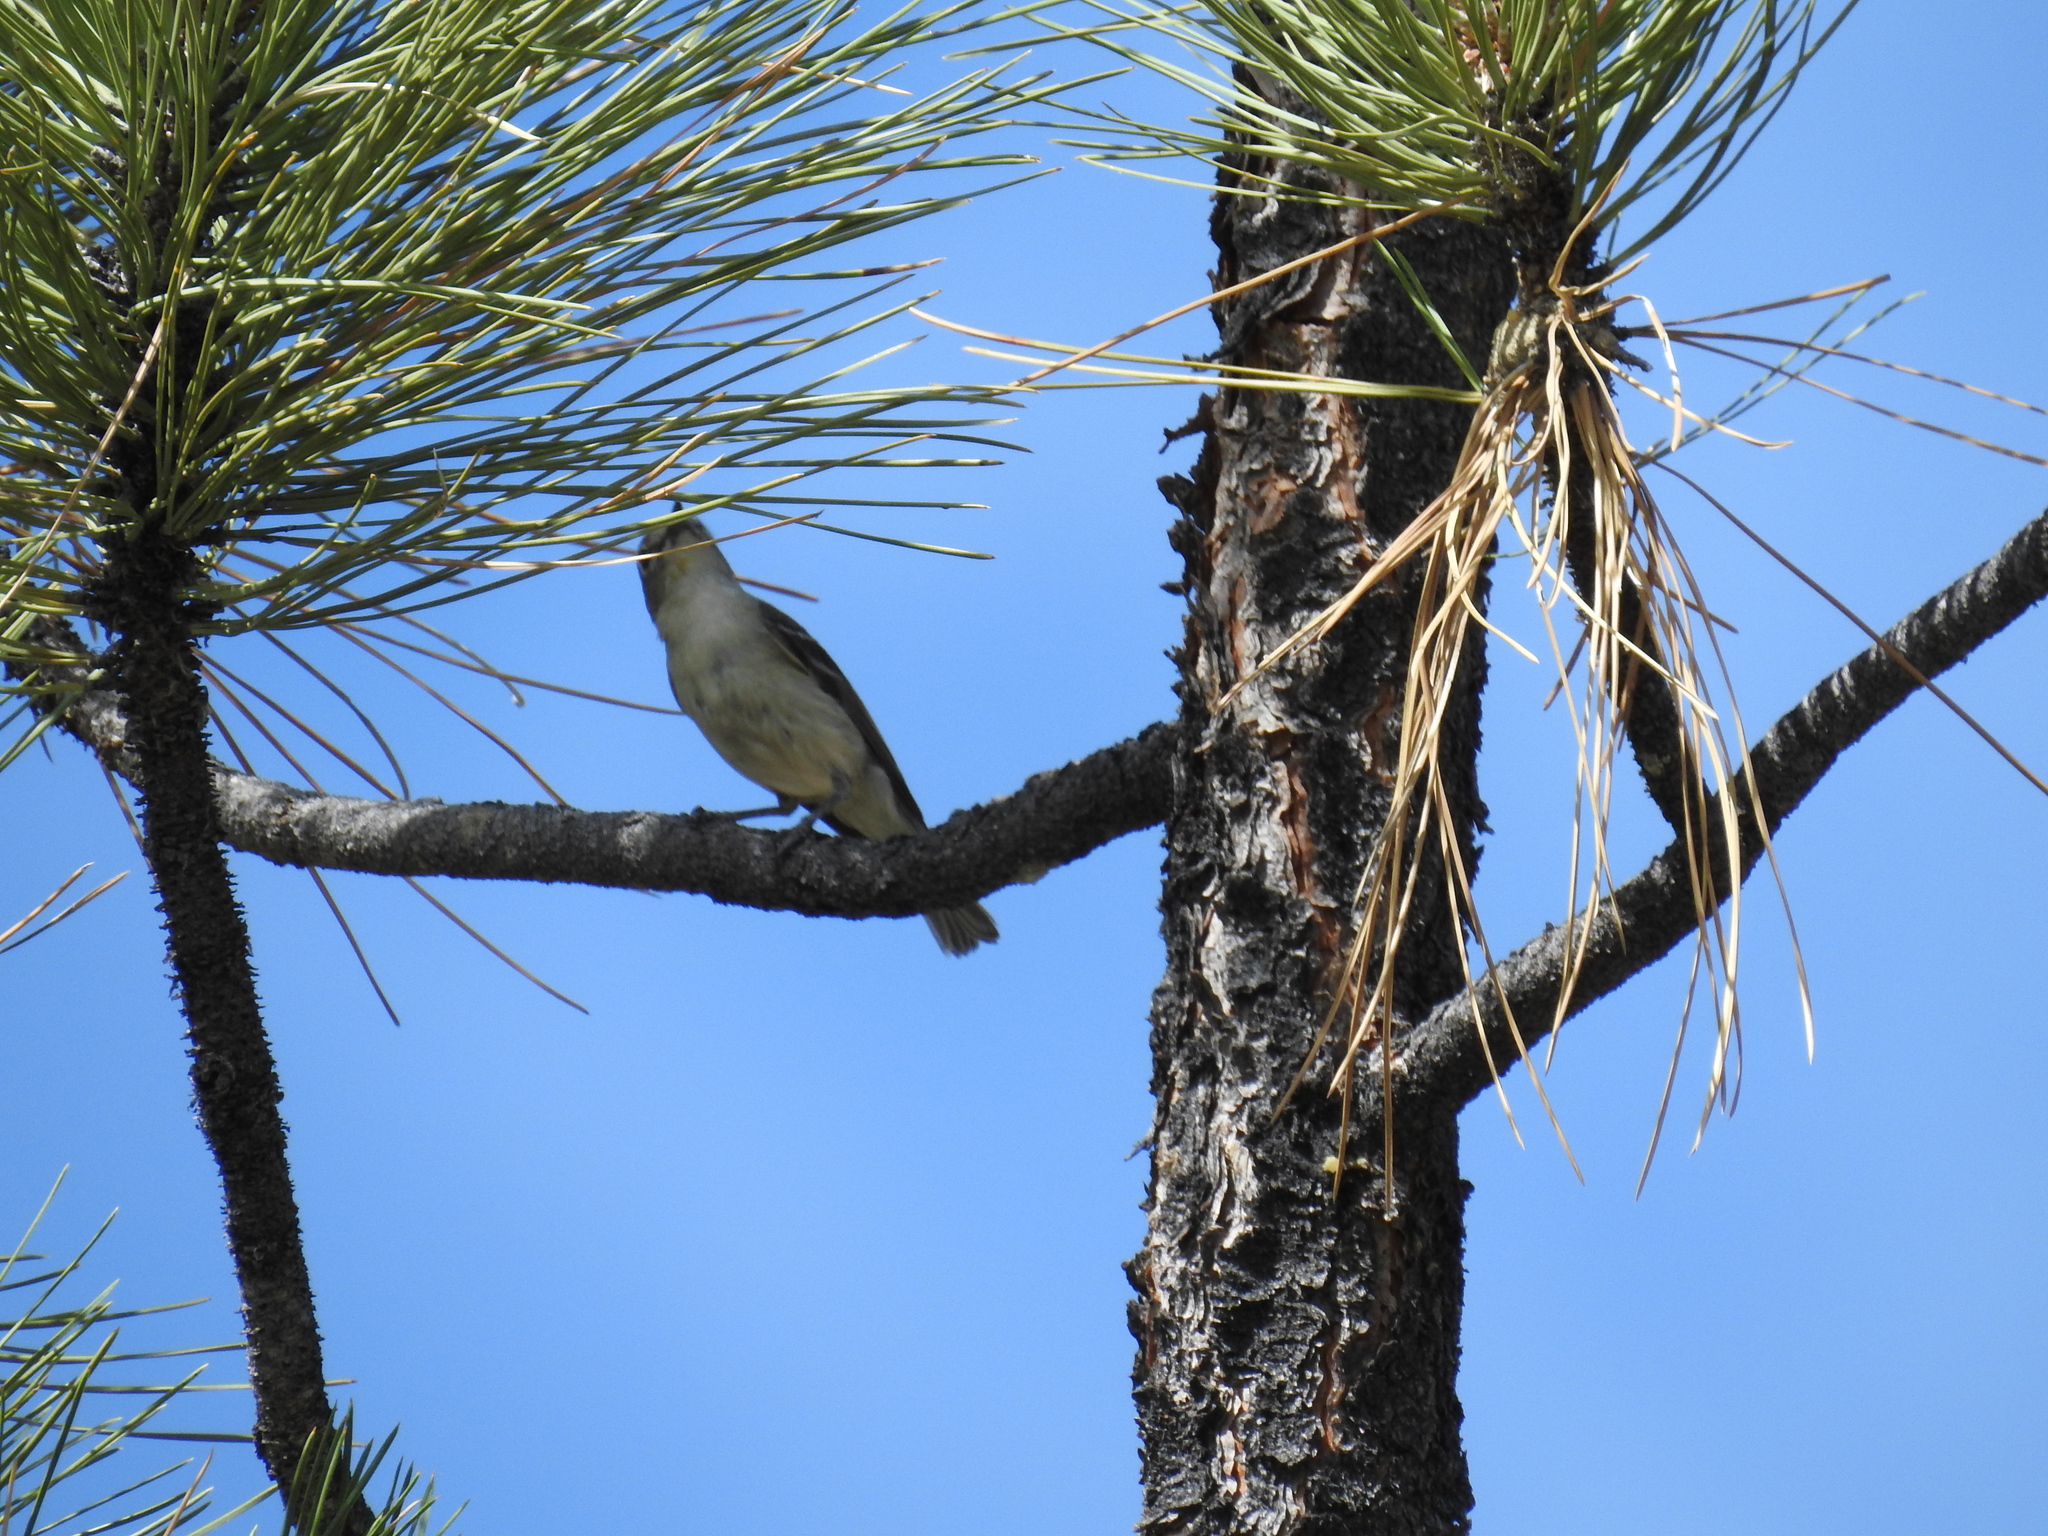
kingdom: Animalia
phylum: Chordata
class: Aves
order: Passeriformes
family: Vireonidae
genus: Vireo
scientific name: Vireo cassinii
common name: Cassin's vireo
